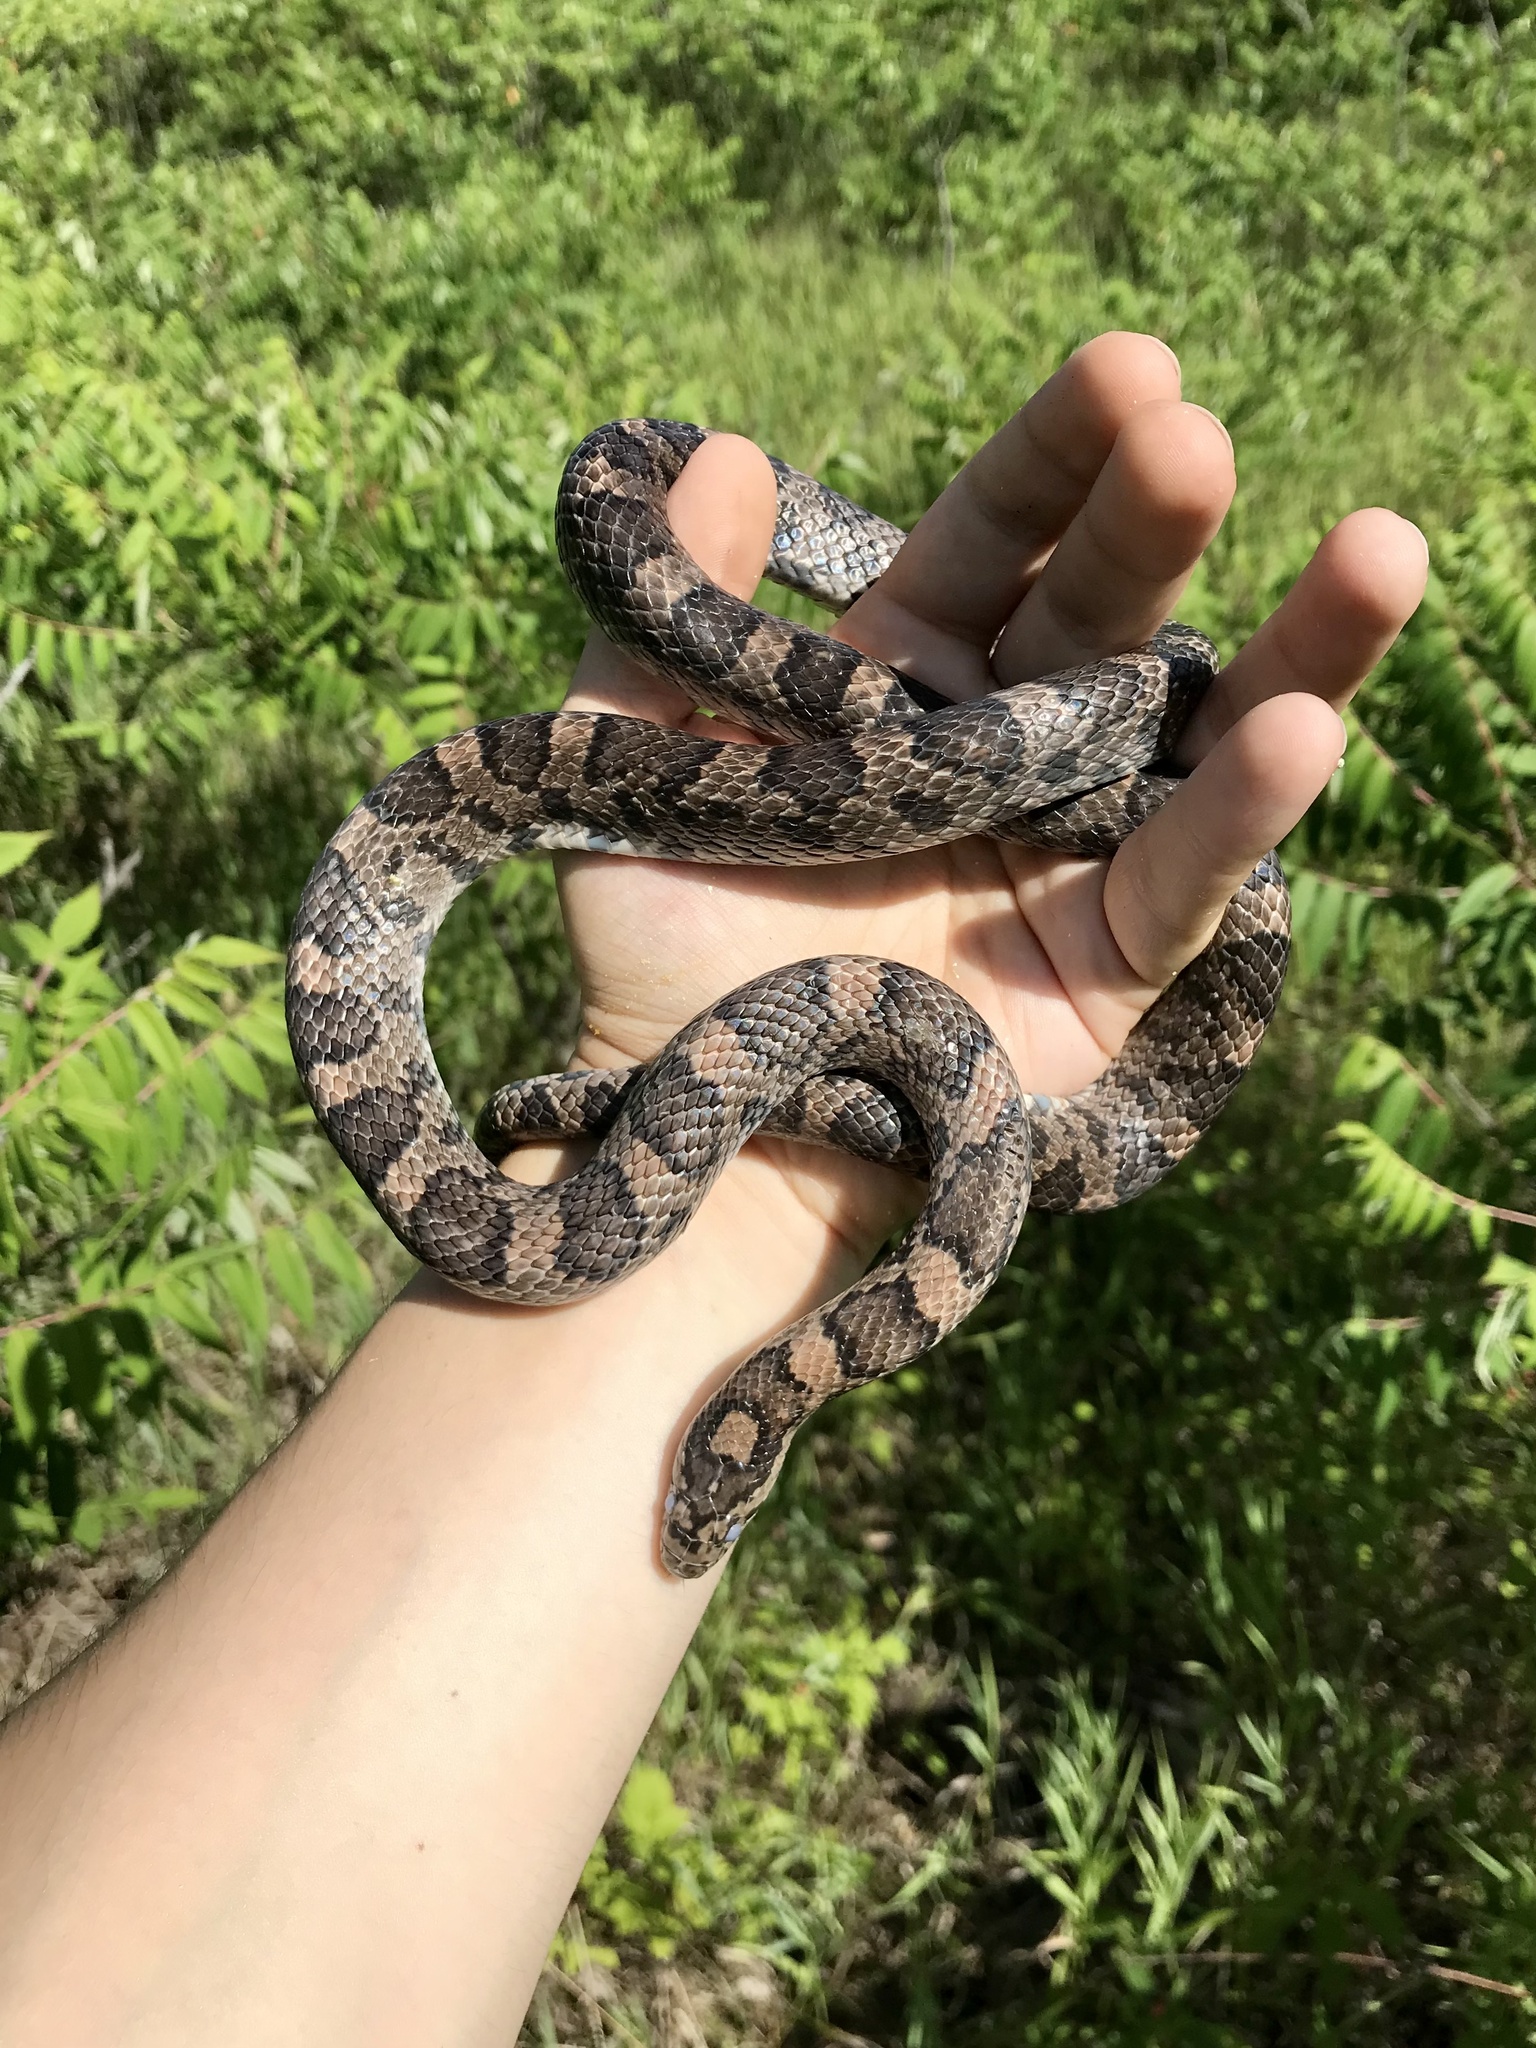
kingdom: Animalia
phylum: Chordata
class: Squamata
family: Colubridae
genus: Lampropeltis
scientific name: Lampropeltis triangulum
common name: Eastern milksnake
